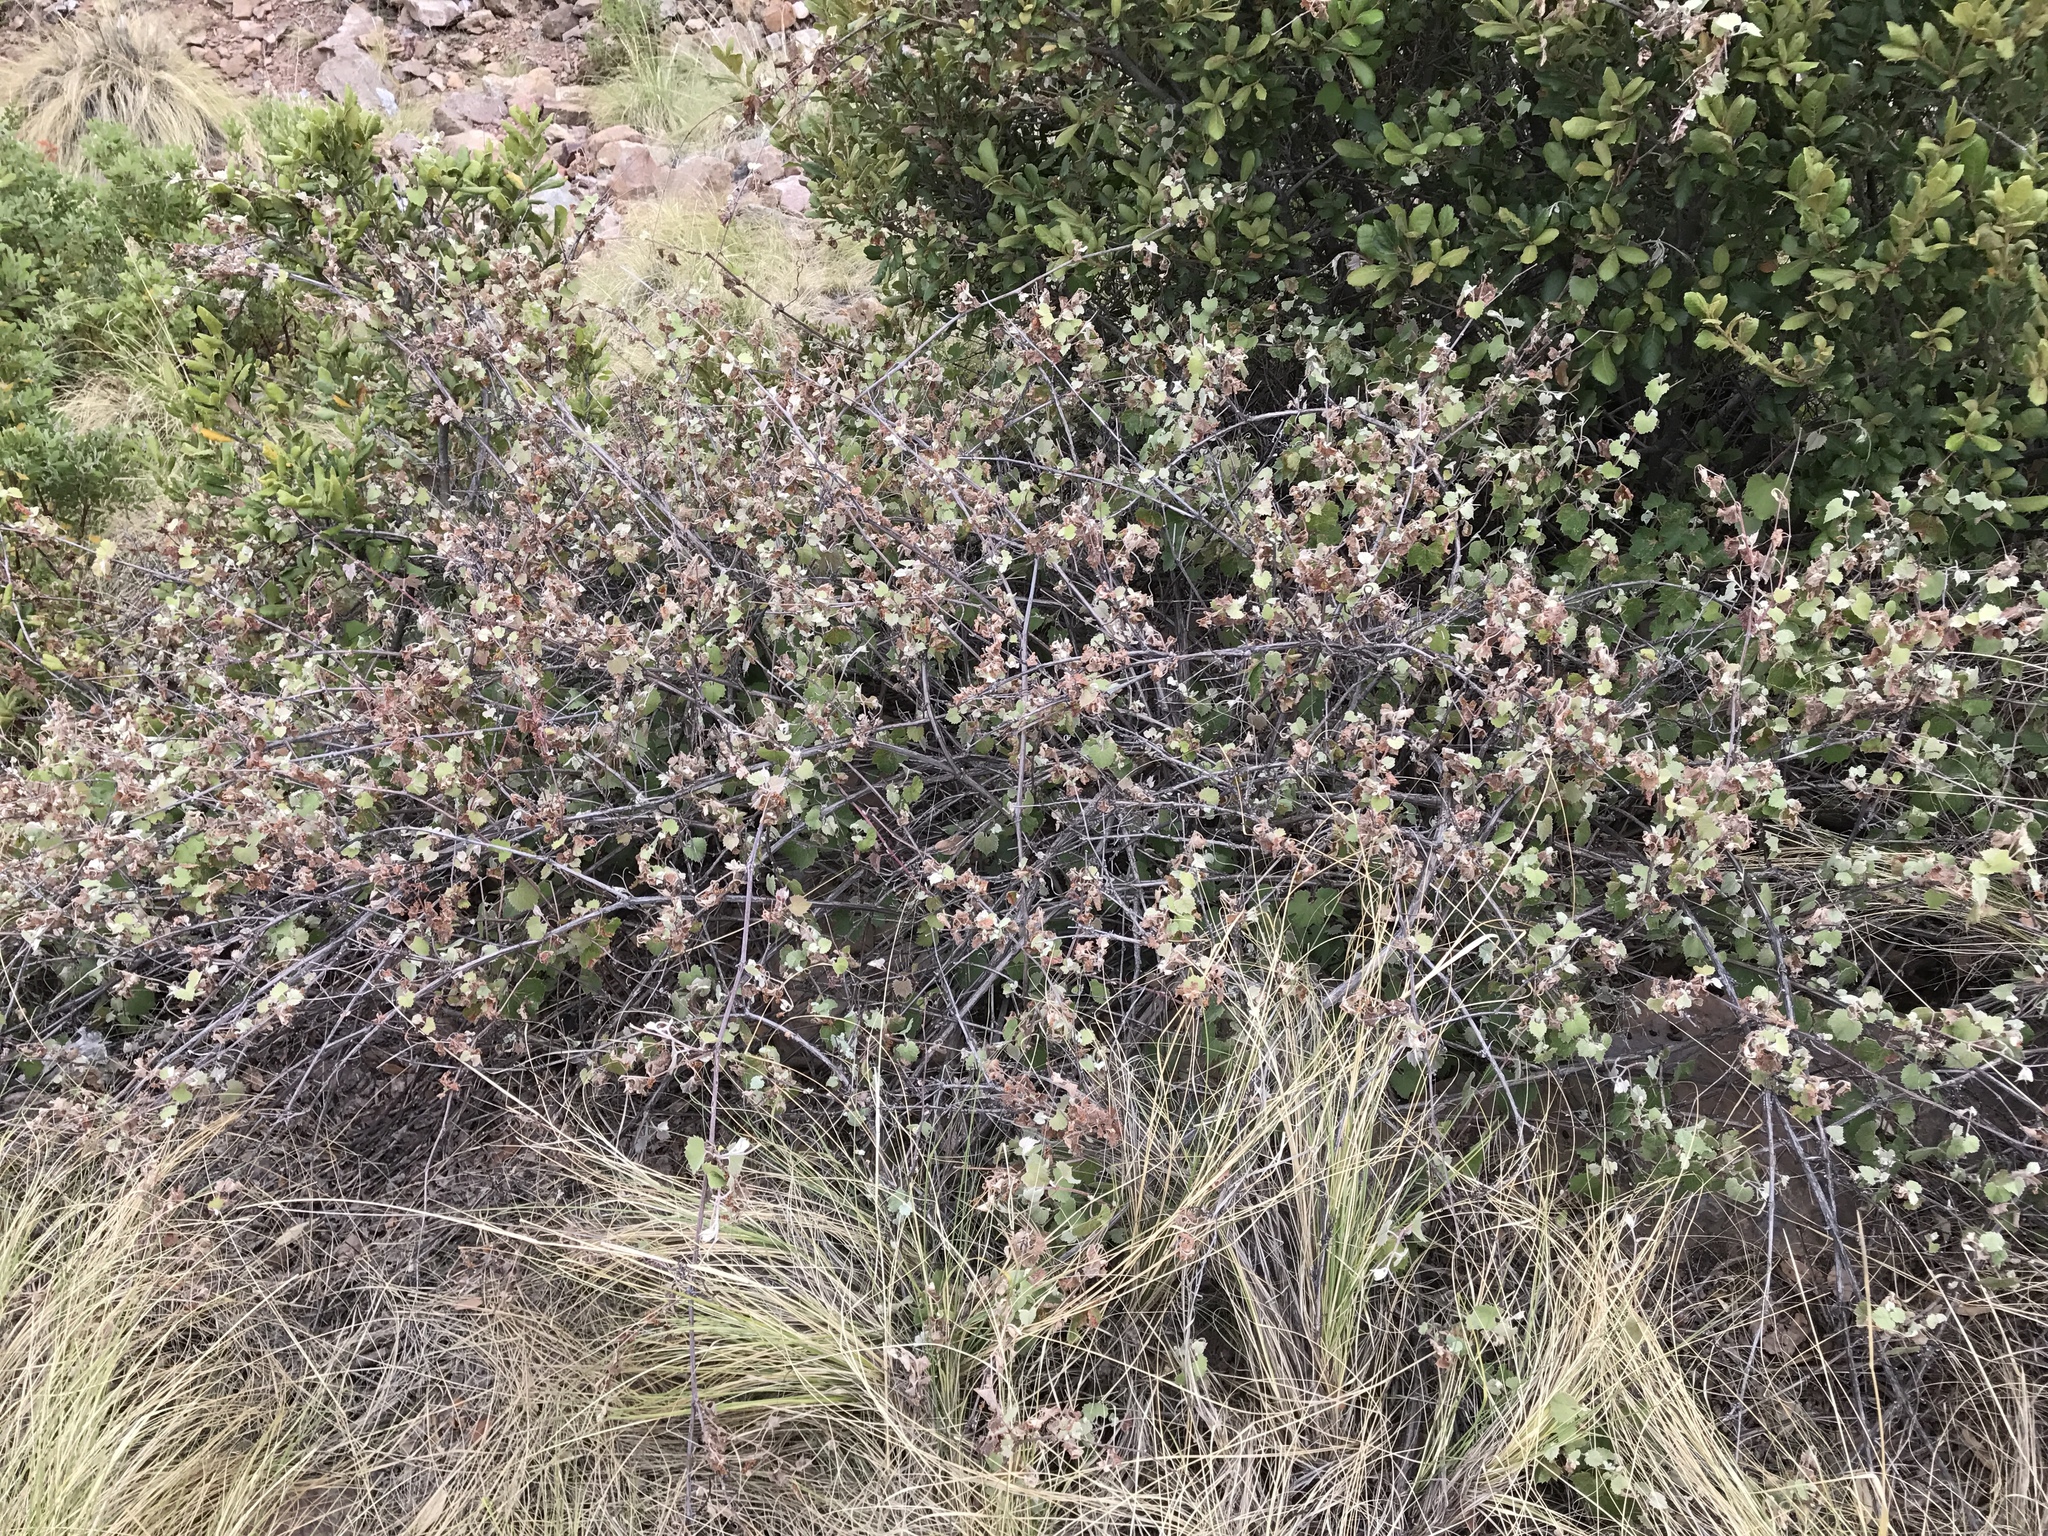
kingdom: Plantae
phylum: Tracheophyta
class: Magnoliopsida
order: Vitales
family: Vitaceae
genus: Vitis
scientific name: Vitis arizonica
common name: Canyon grape
